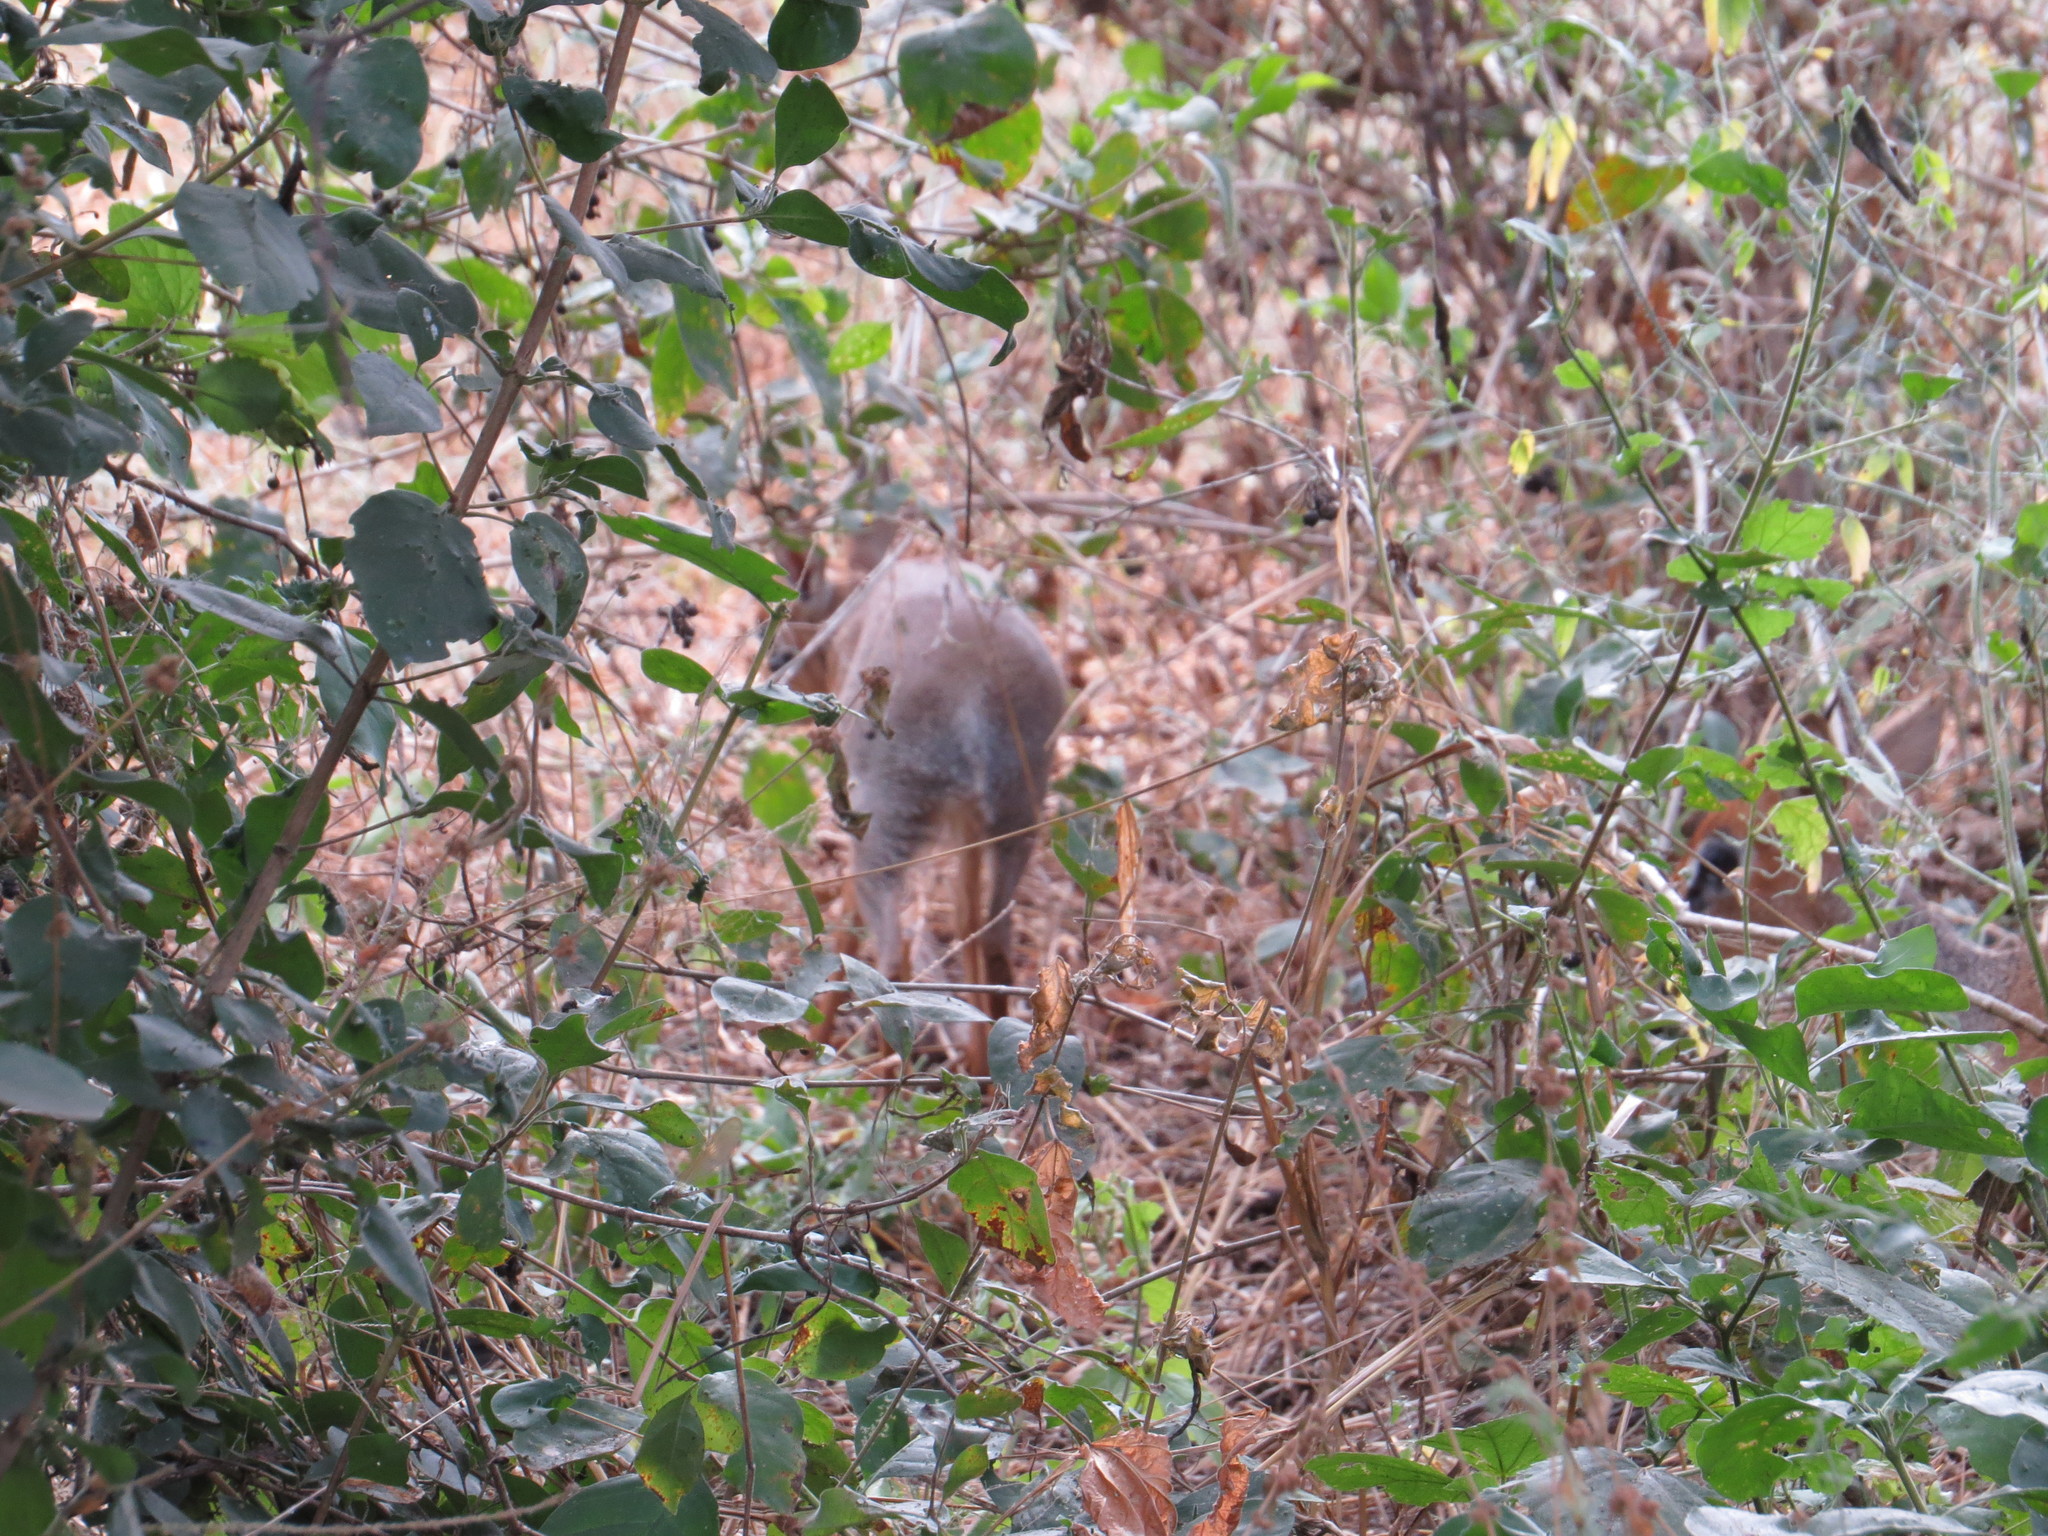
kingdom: Animalia
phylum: Chordata
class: Mammalia
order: Artiodactyla
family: Bovidae
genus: Madoqua
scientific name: Madoqua
